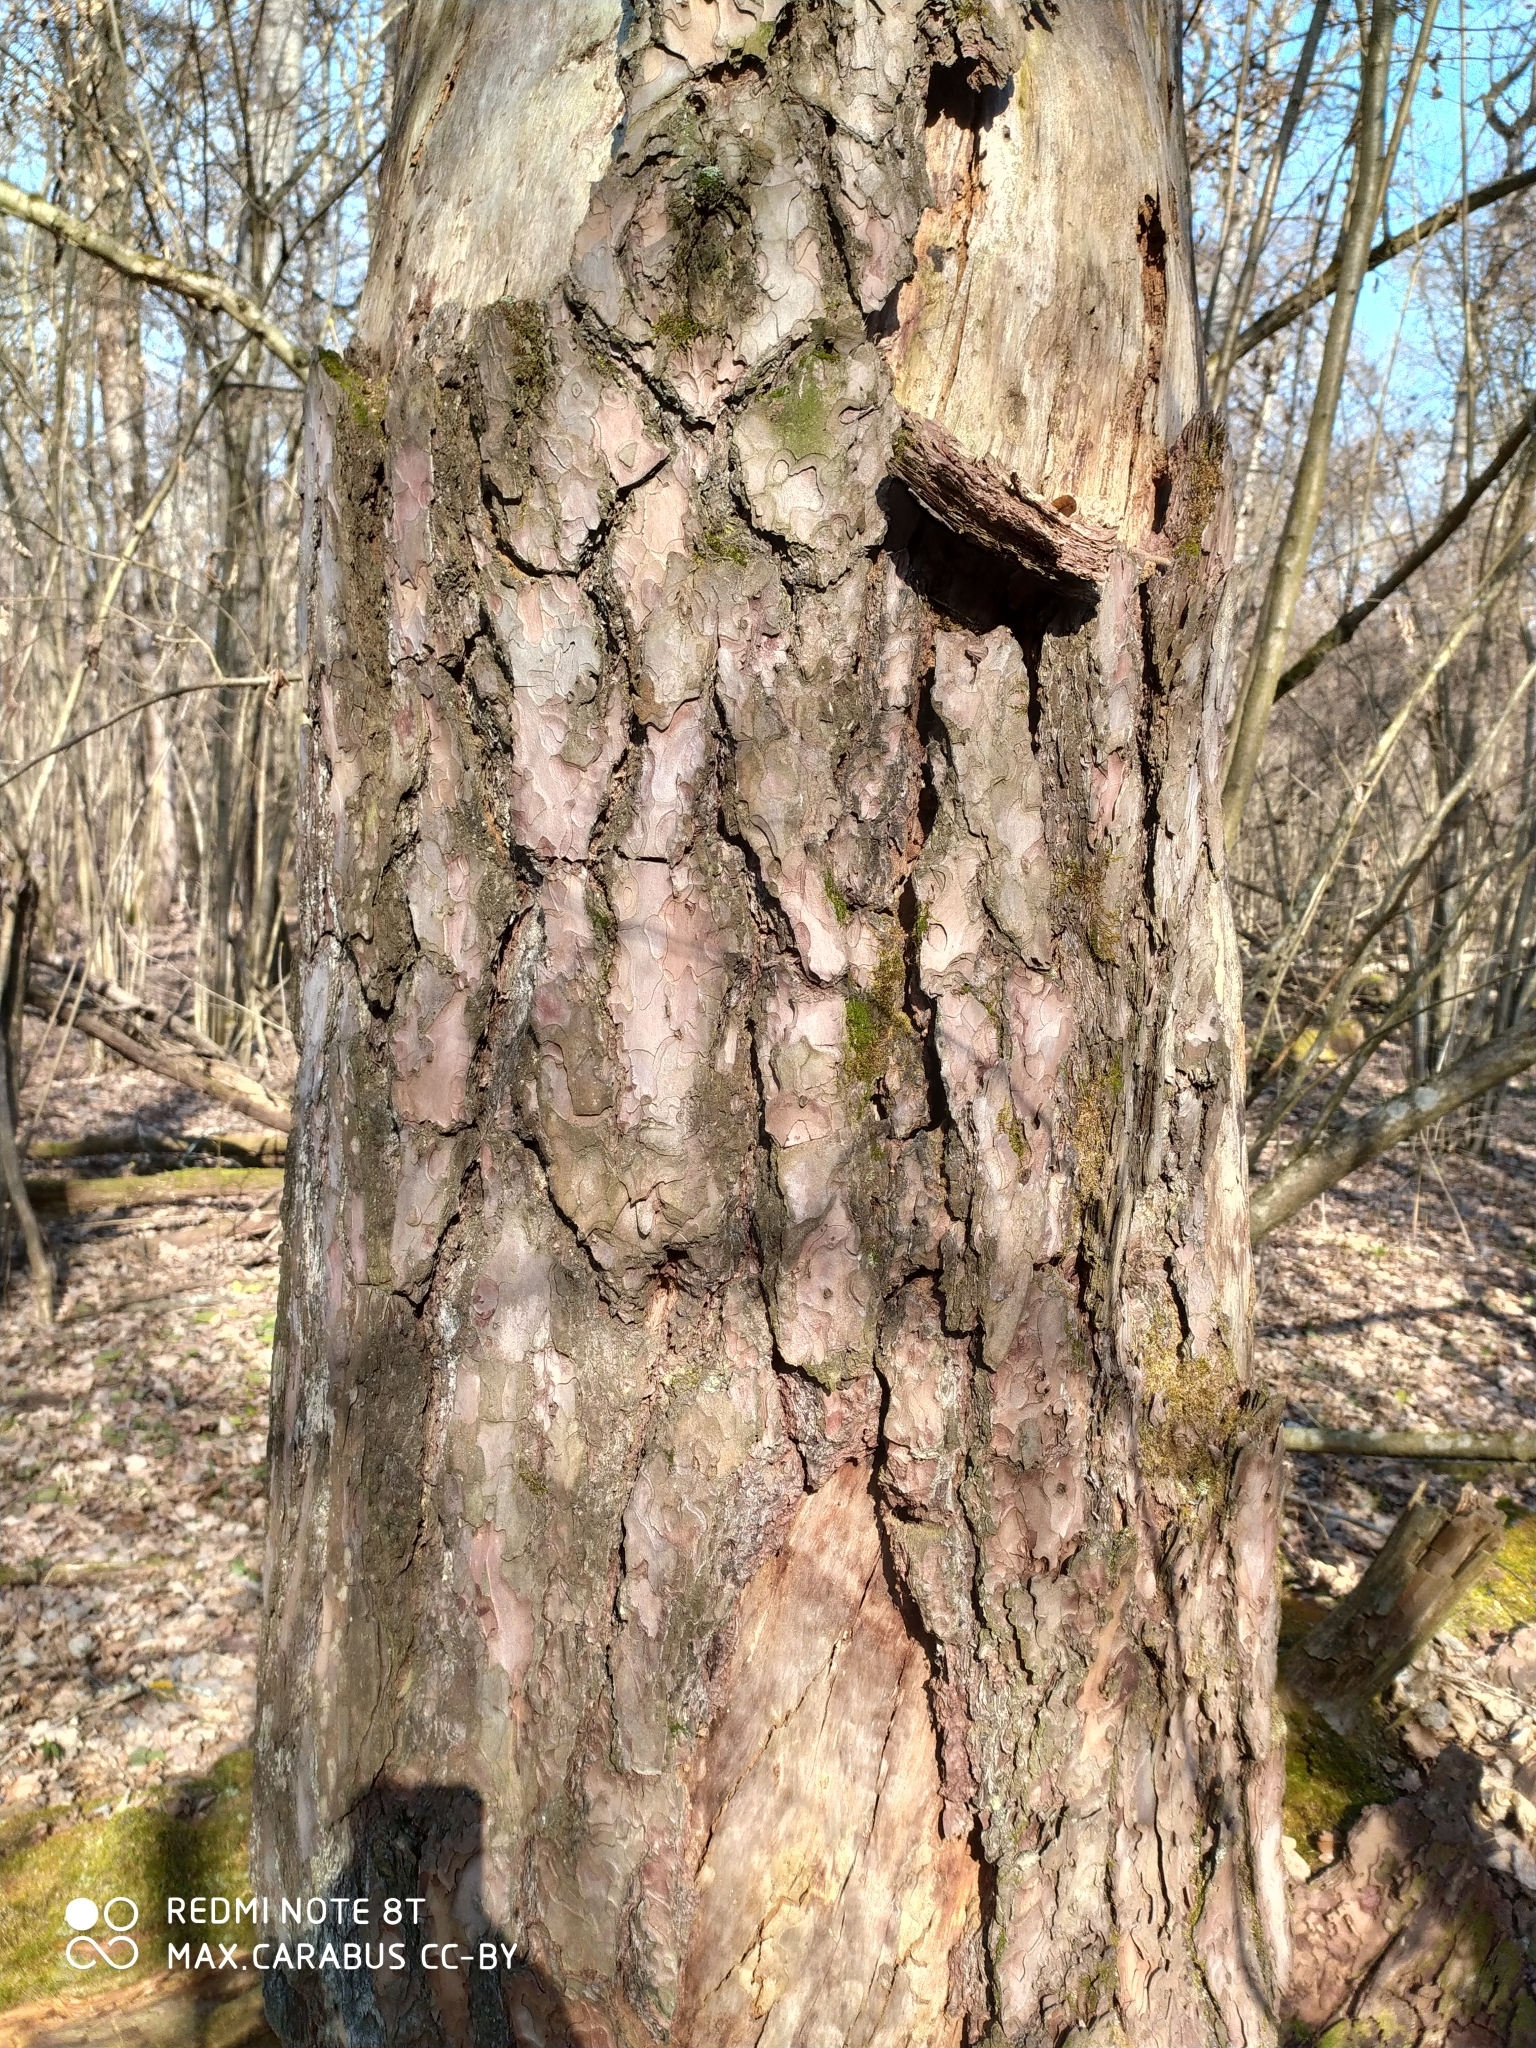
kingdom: Plantae
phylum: Tracheophyta
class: Pinopsida
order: Pinales
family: Pinaceae
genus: Pinus
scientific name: Pinus sylvestris
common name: Scots pine
